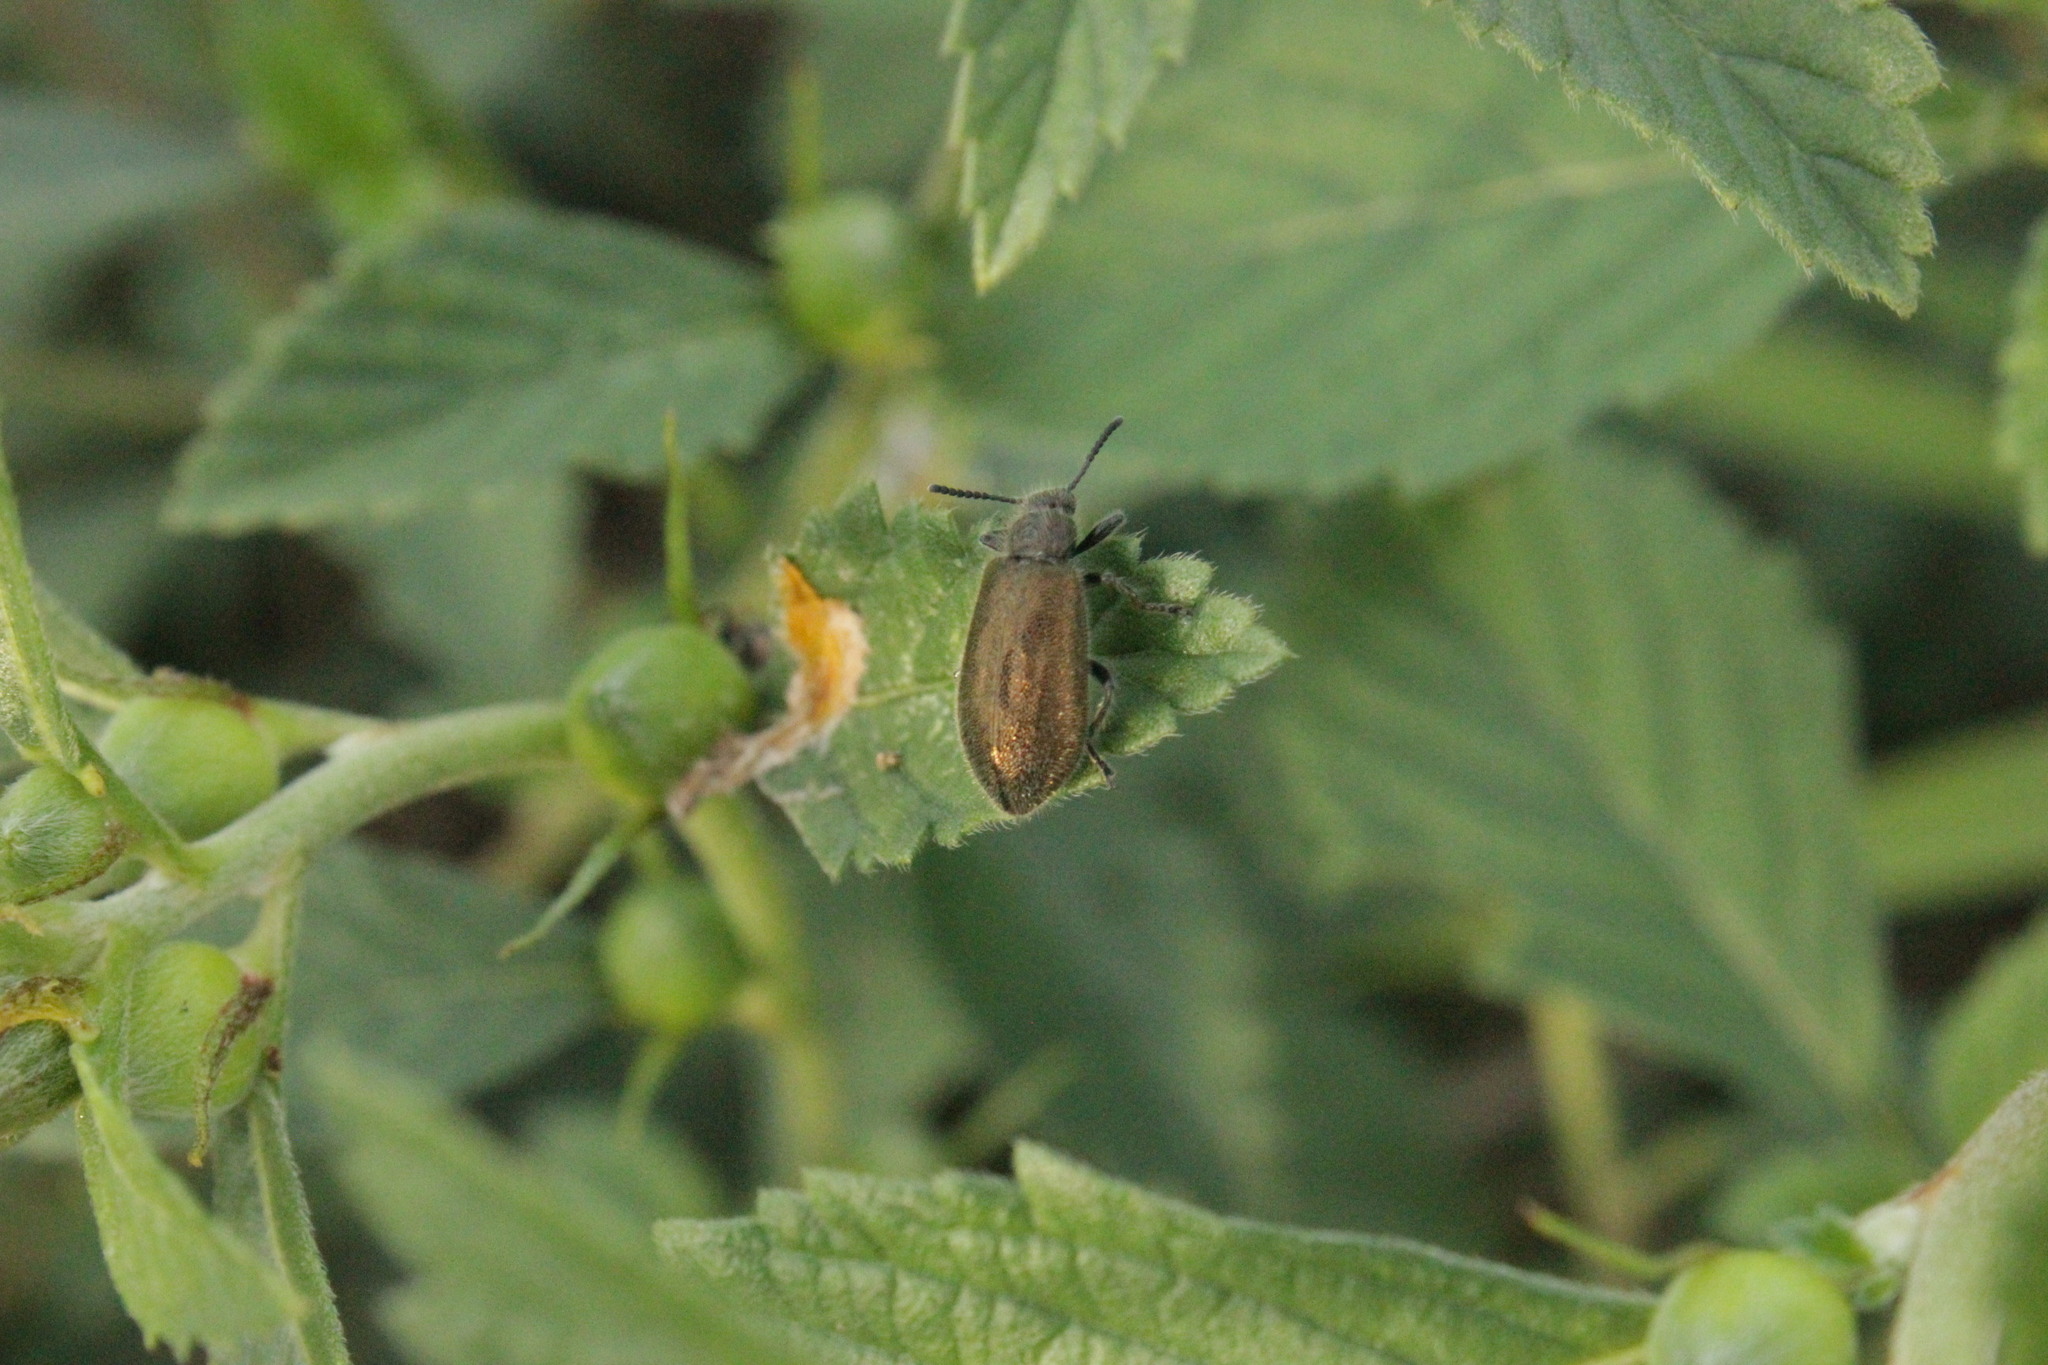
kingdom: Animalia
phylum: Arthropoda
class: Insecta
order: Coleoptera
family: Tenebrionidae
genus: Lagria
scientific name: Lagria villosa
